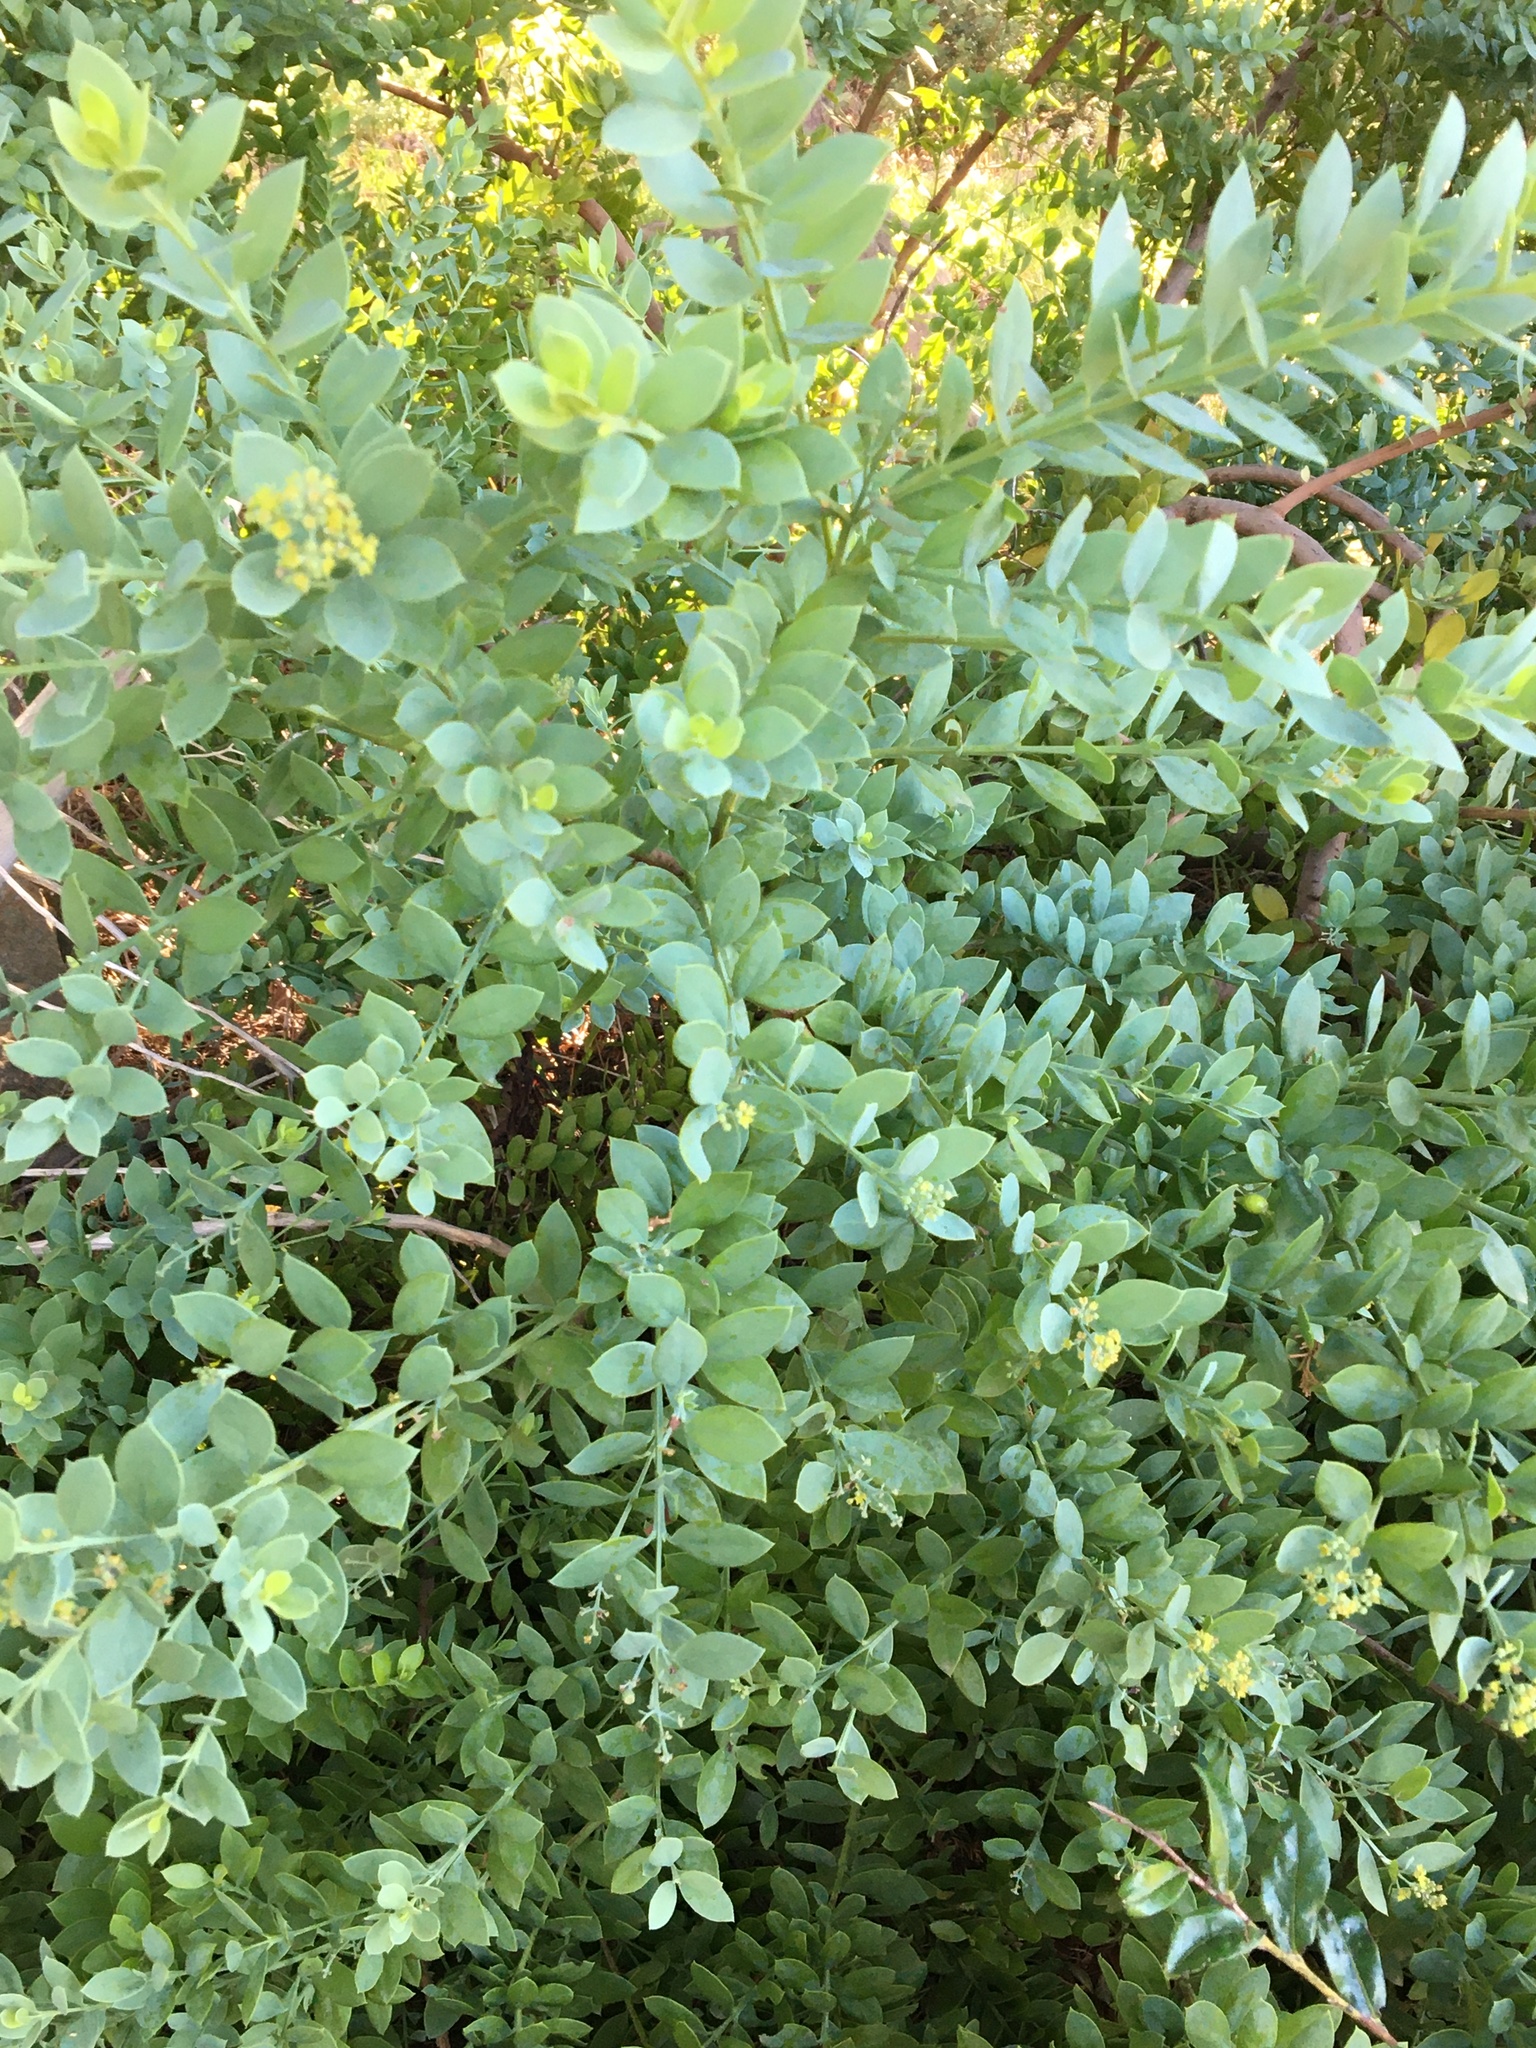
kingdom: Plantae
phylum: Tracheophyta
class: Magnoliopsida
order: Santalales
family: Santalaceae
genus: Osyris
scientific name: Osyris compressa
